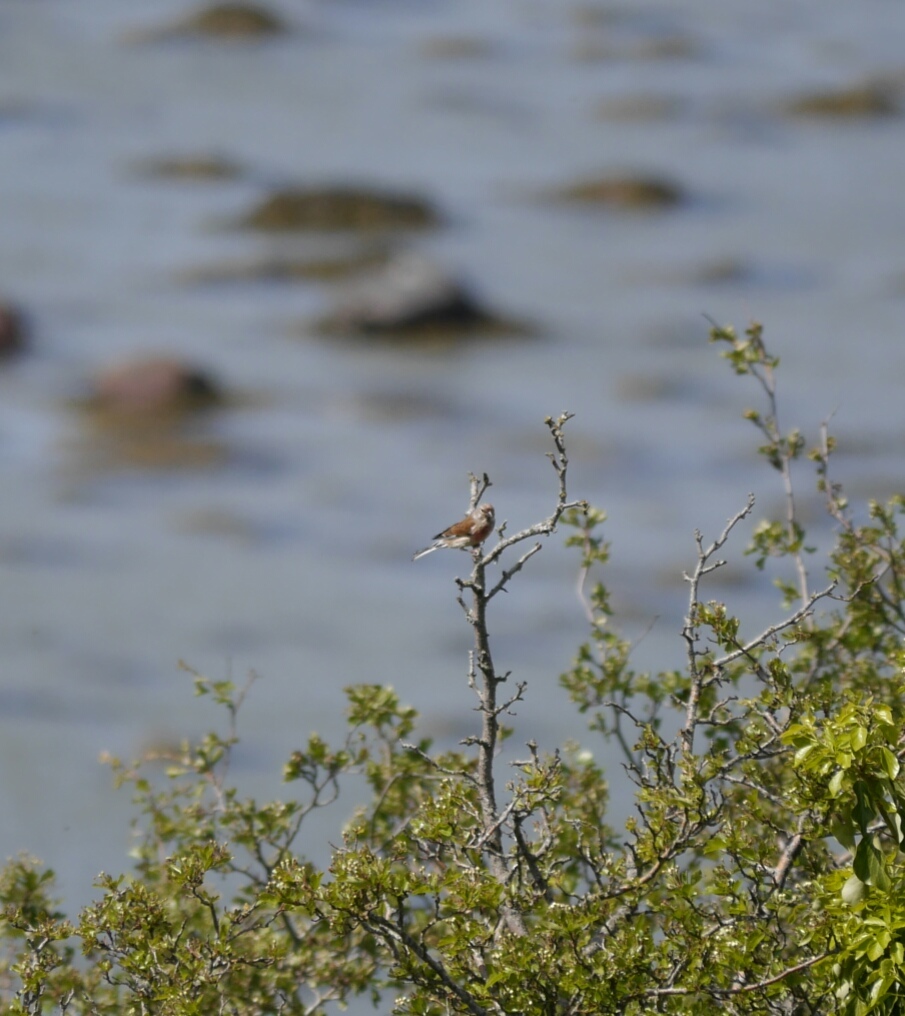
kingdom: Animalia
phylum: Chordata
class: Aves
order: Passeriformes
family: Fringillidae
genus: Linaria
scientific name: Linaria cannabina
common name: Common linnet
